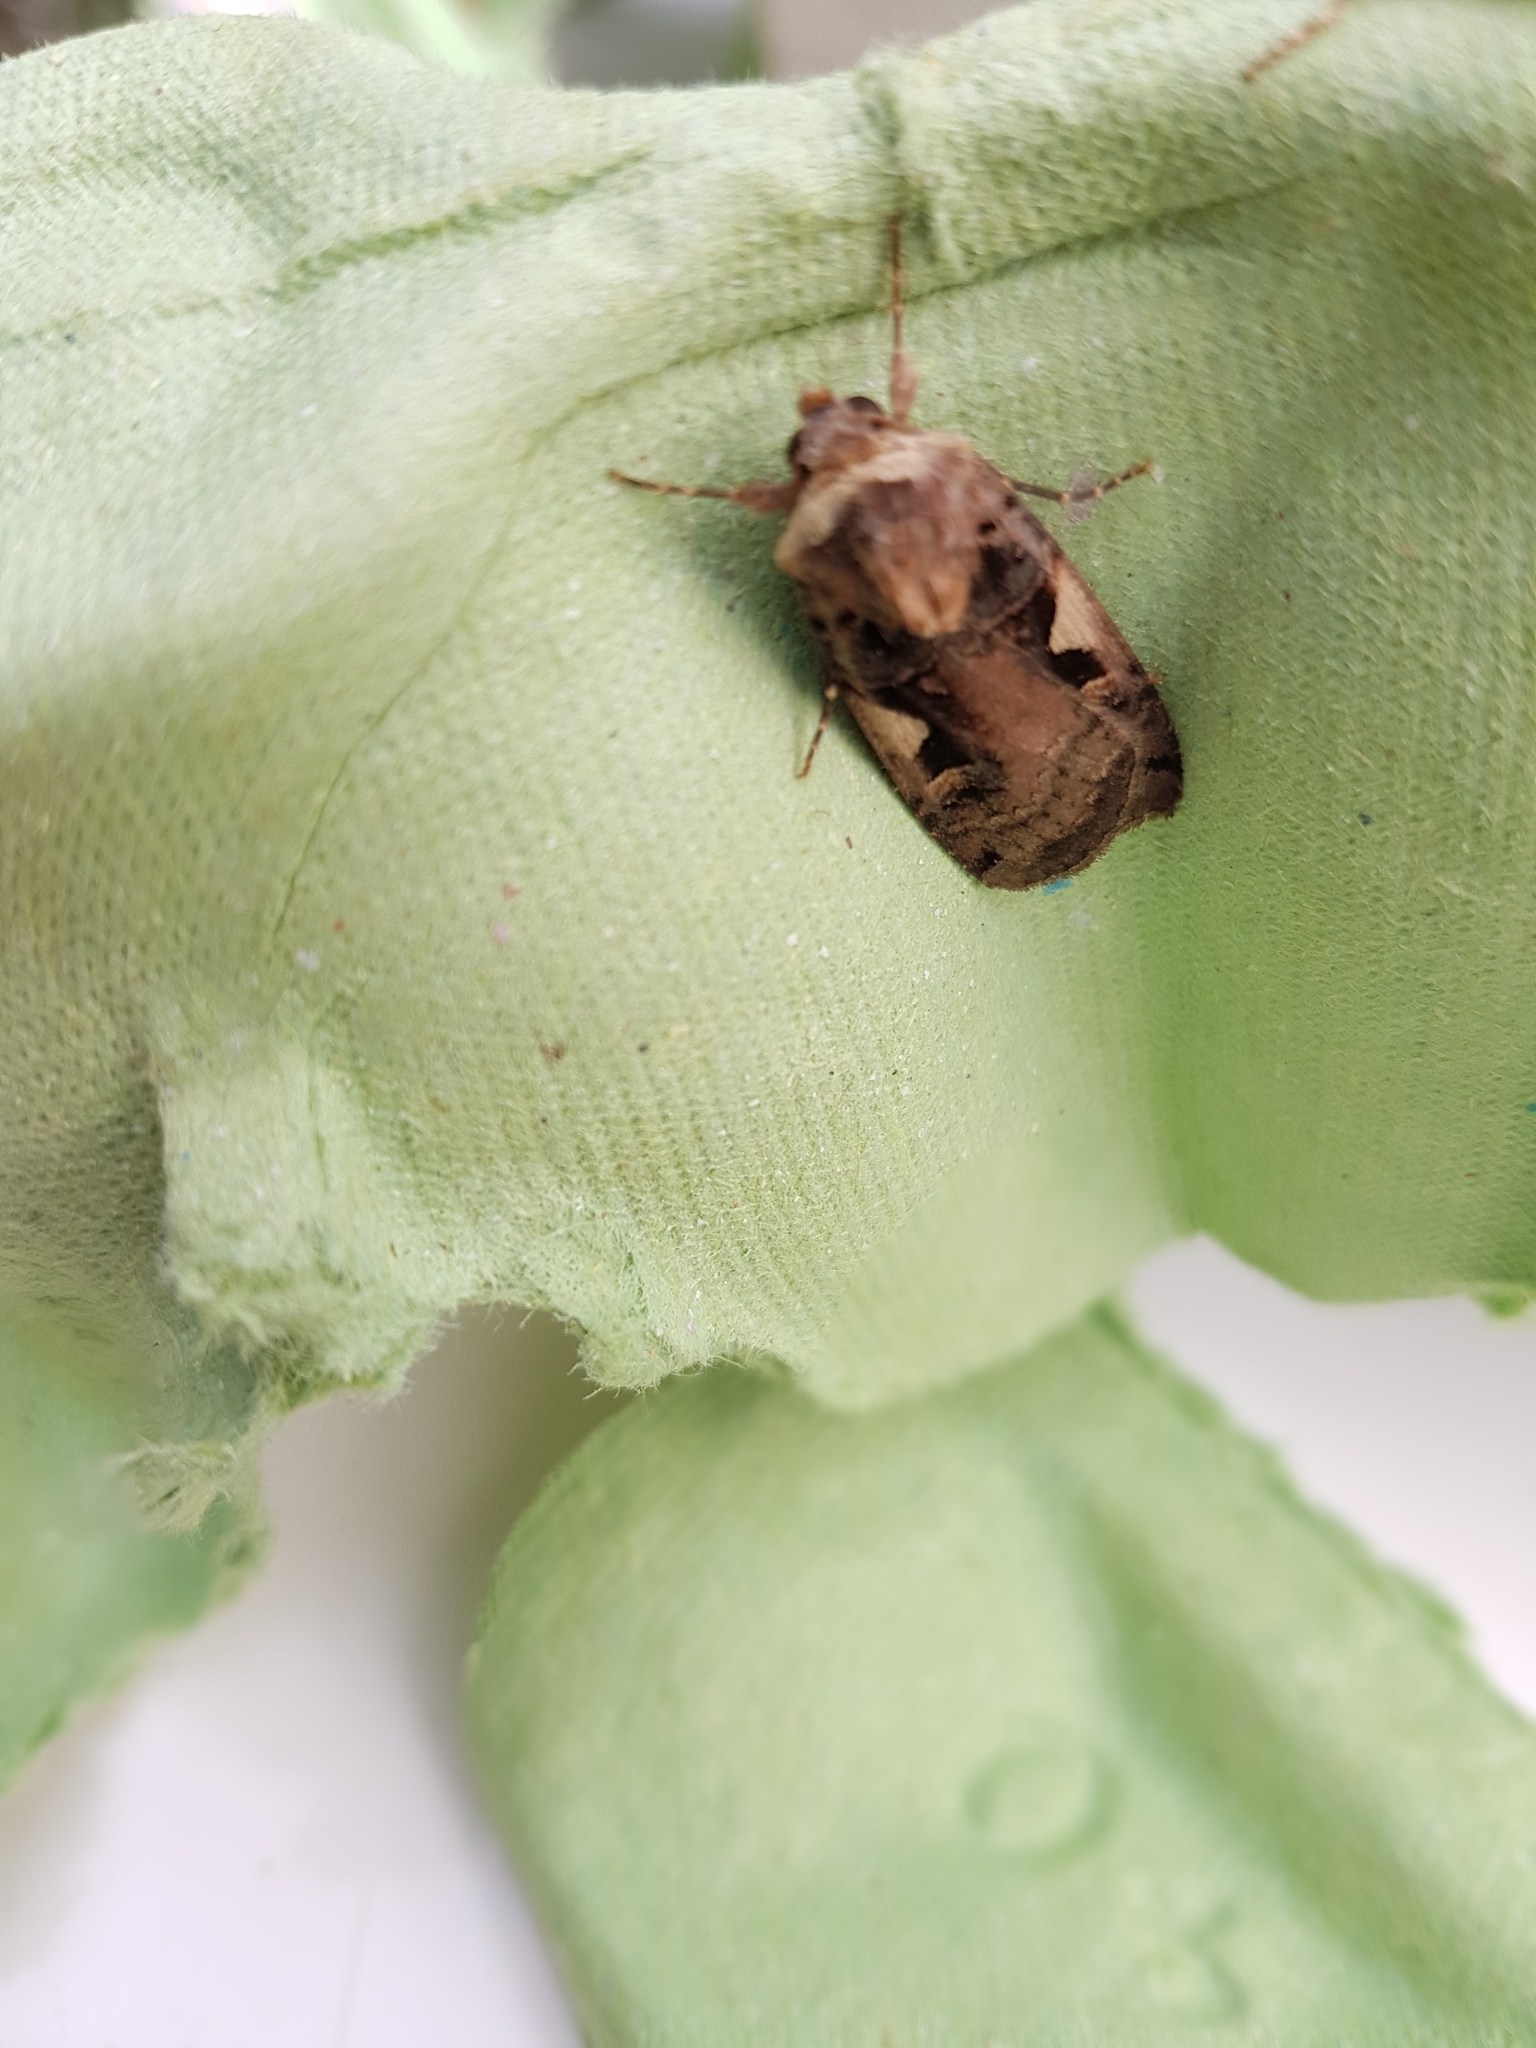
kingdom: Animalia
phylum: Arthropoda
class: Insecta
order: Lepidoptera
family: Noctuidae
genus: Xestia
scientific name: Xestia c-nigrum
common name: Setaceous hebrew character
